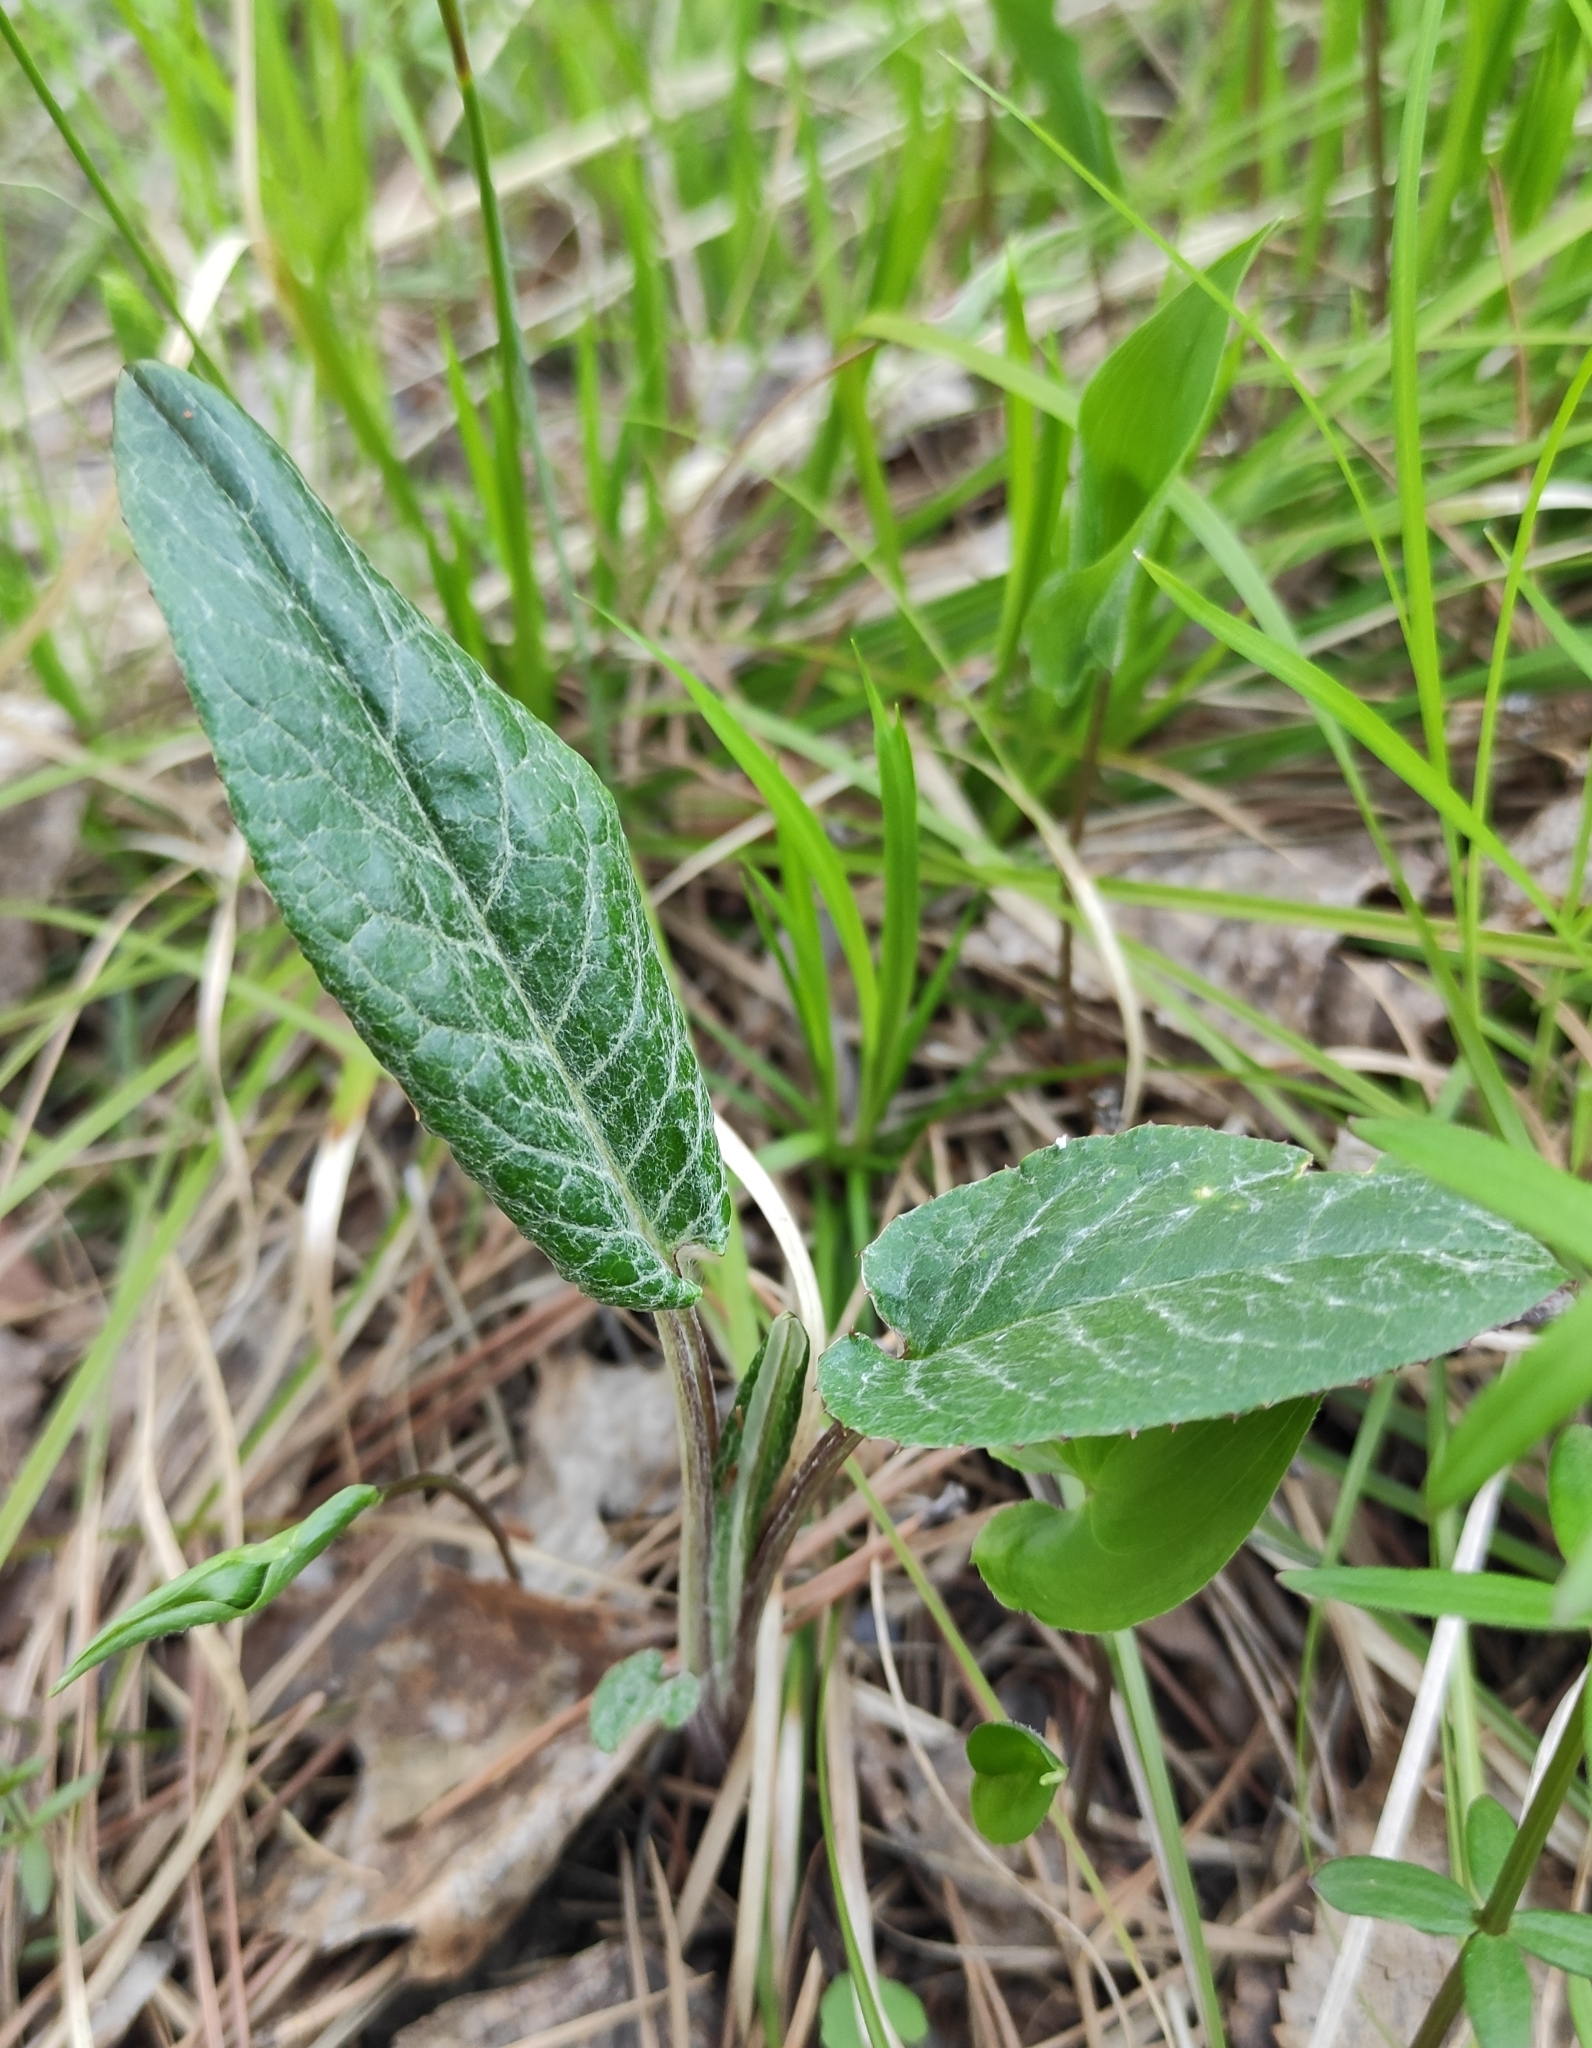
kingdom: Plantae
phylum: Tracheophyta
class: Magnoliopsida
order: Asterales
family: Asteraceae
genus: Saussurea
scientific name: Saussurea controversa
